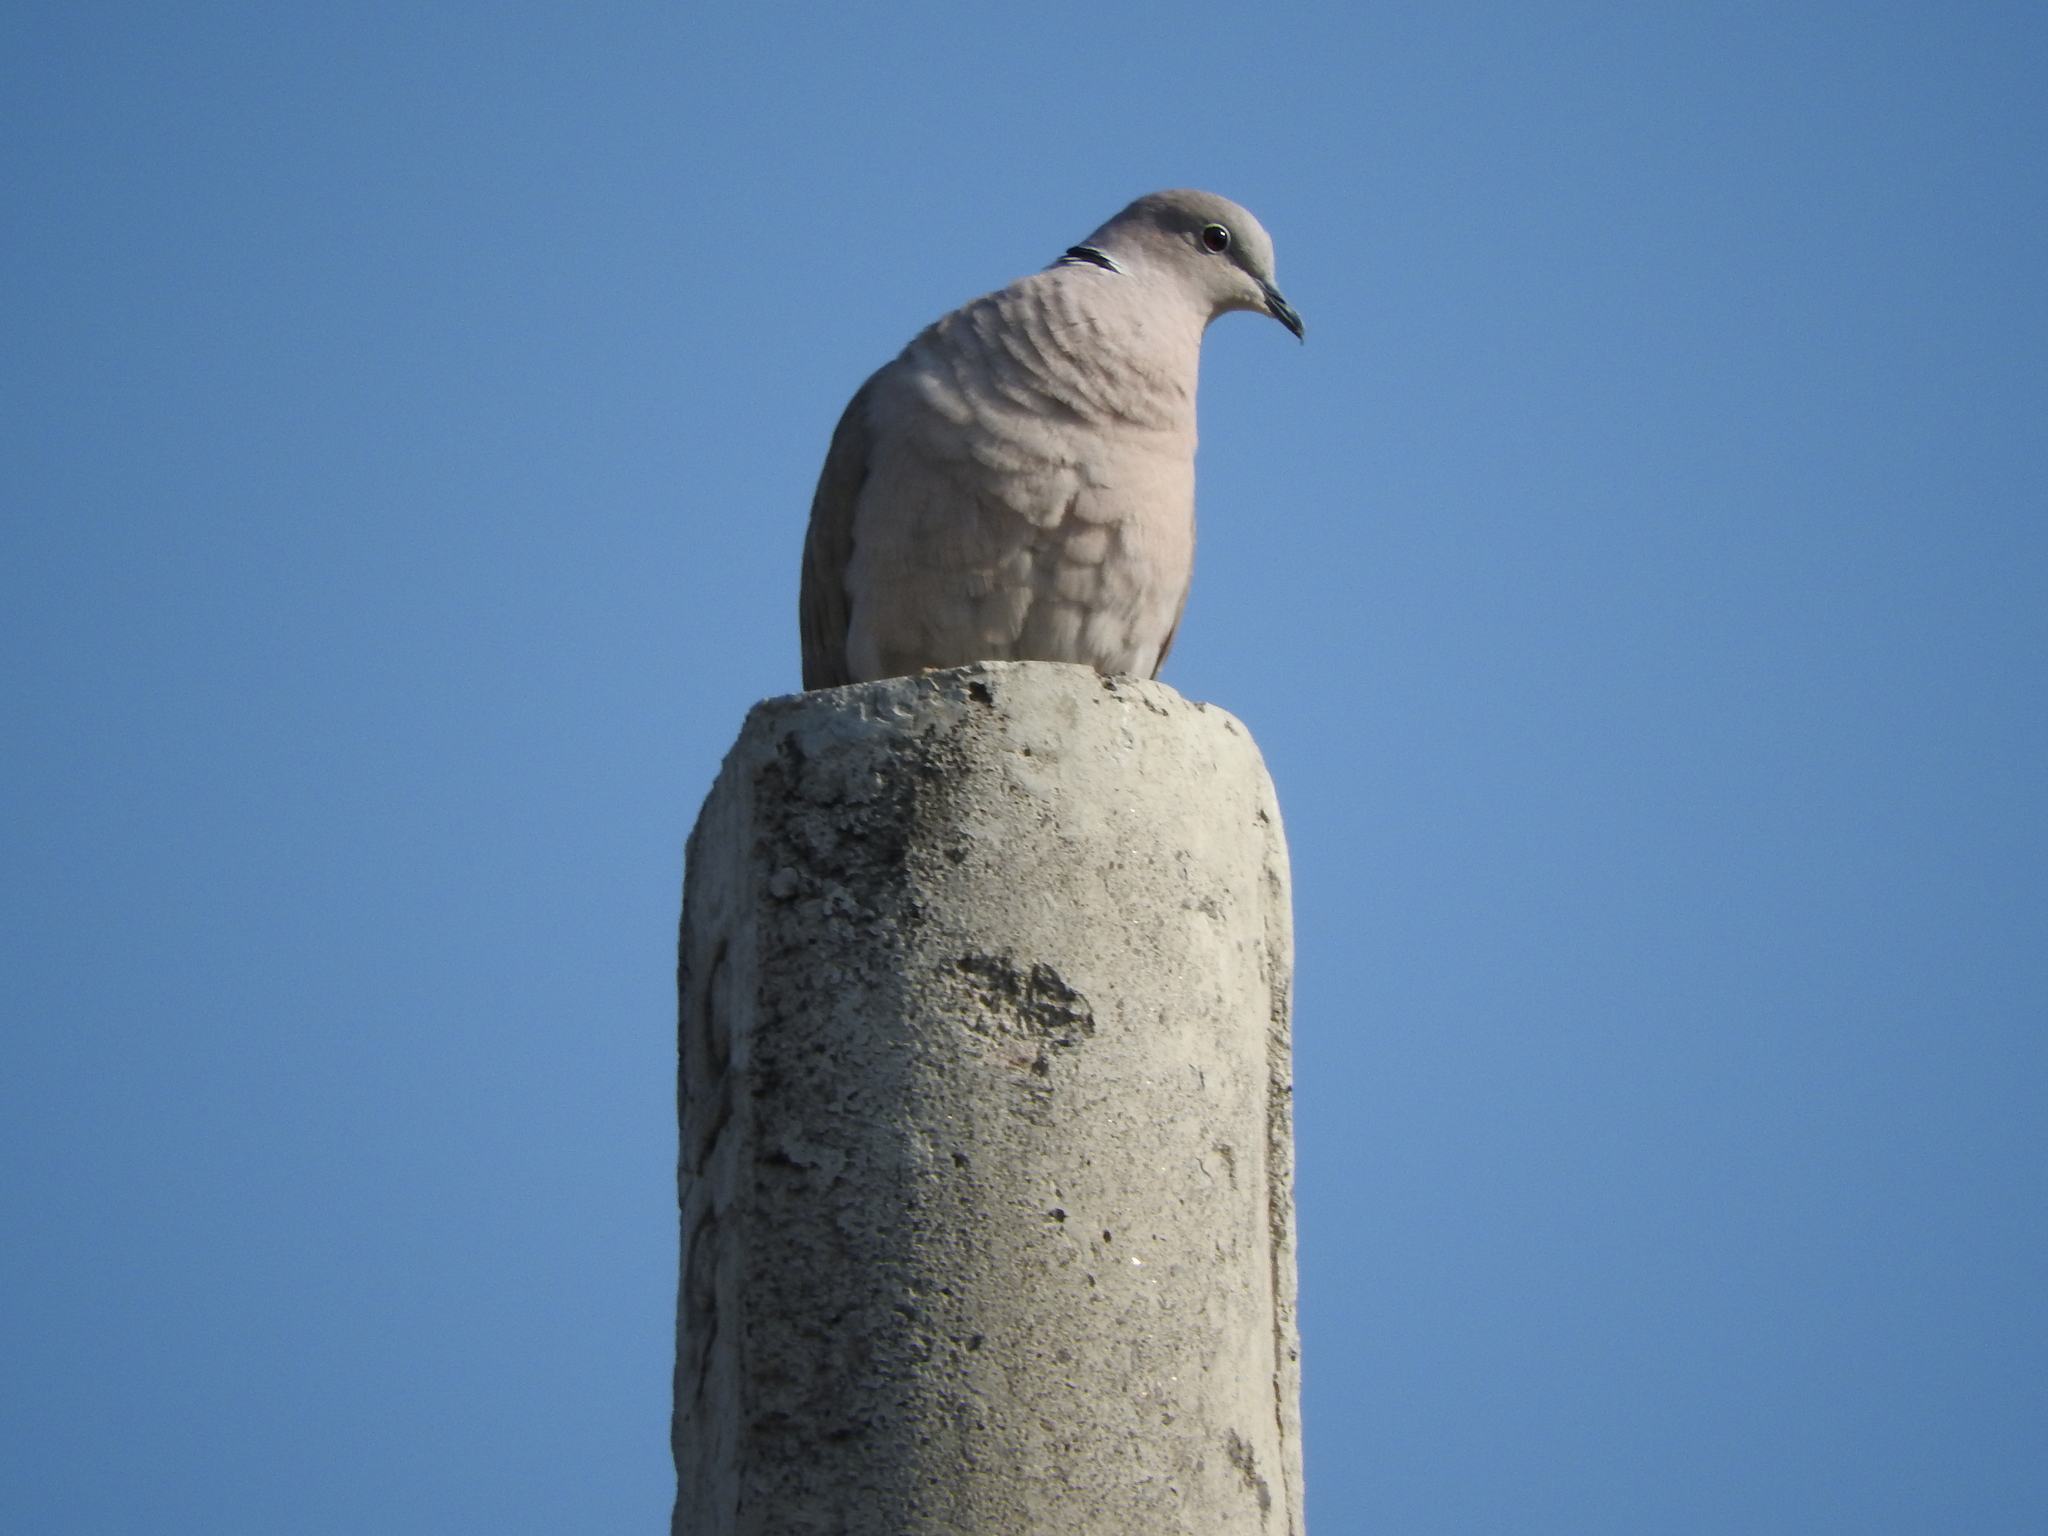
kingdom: Animalia
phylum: Chordata
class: Aves
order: Columbiformes
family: Columbidae
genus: Streptopelia
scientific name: Streptopelia decaocto
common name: Eurasian collared dove
